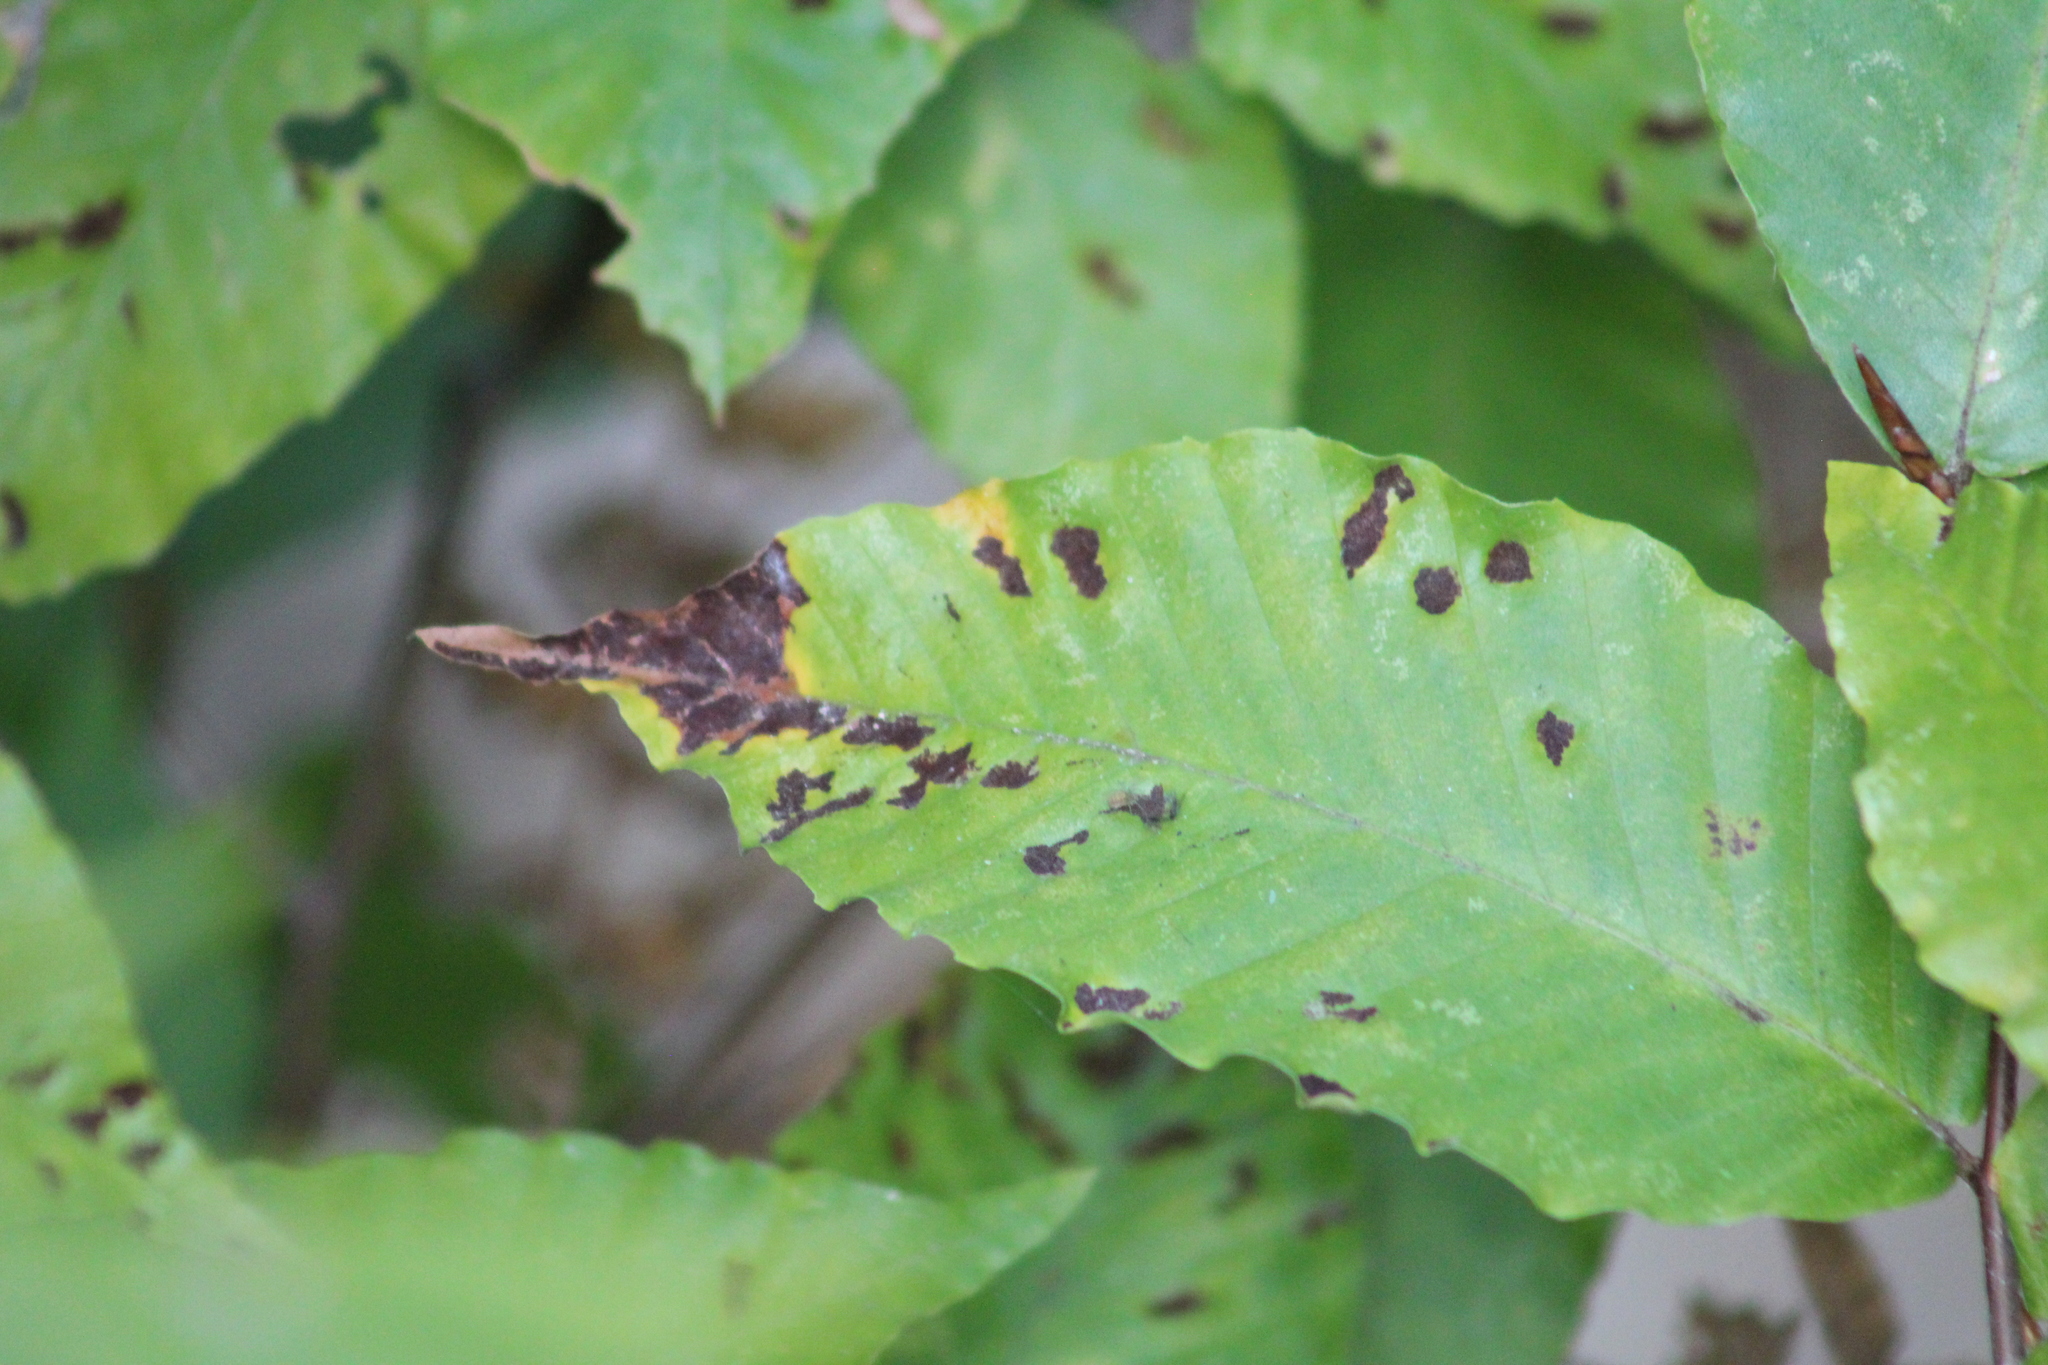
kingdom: Animalia
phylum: Arthropoda
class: Arachnida
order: Trombidiformes
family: Eriophyidae
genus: Acalitus
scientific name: Acalitus
